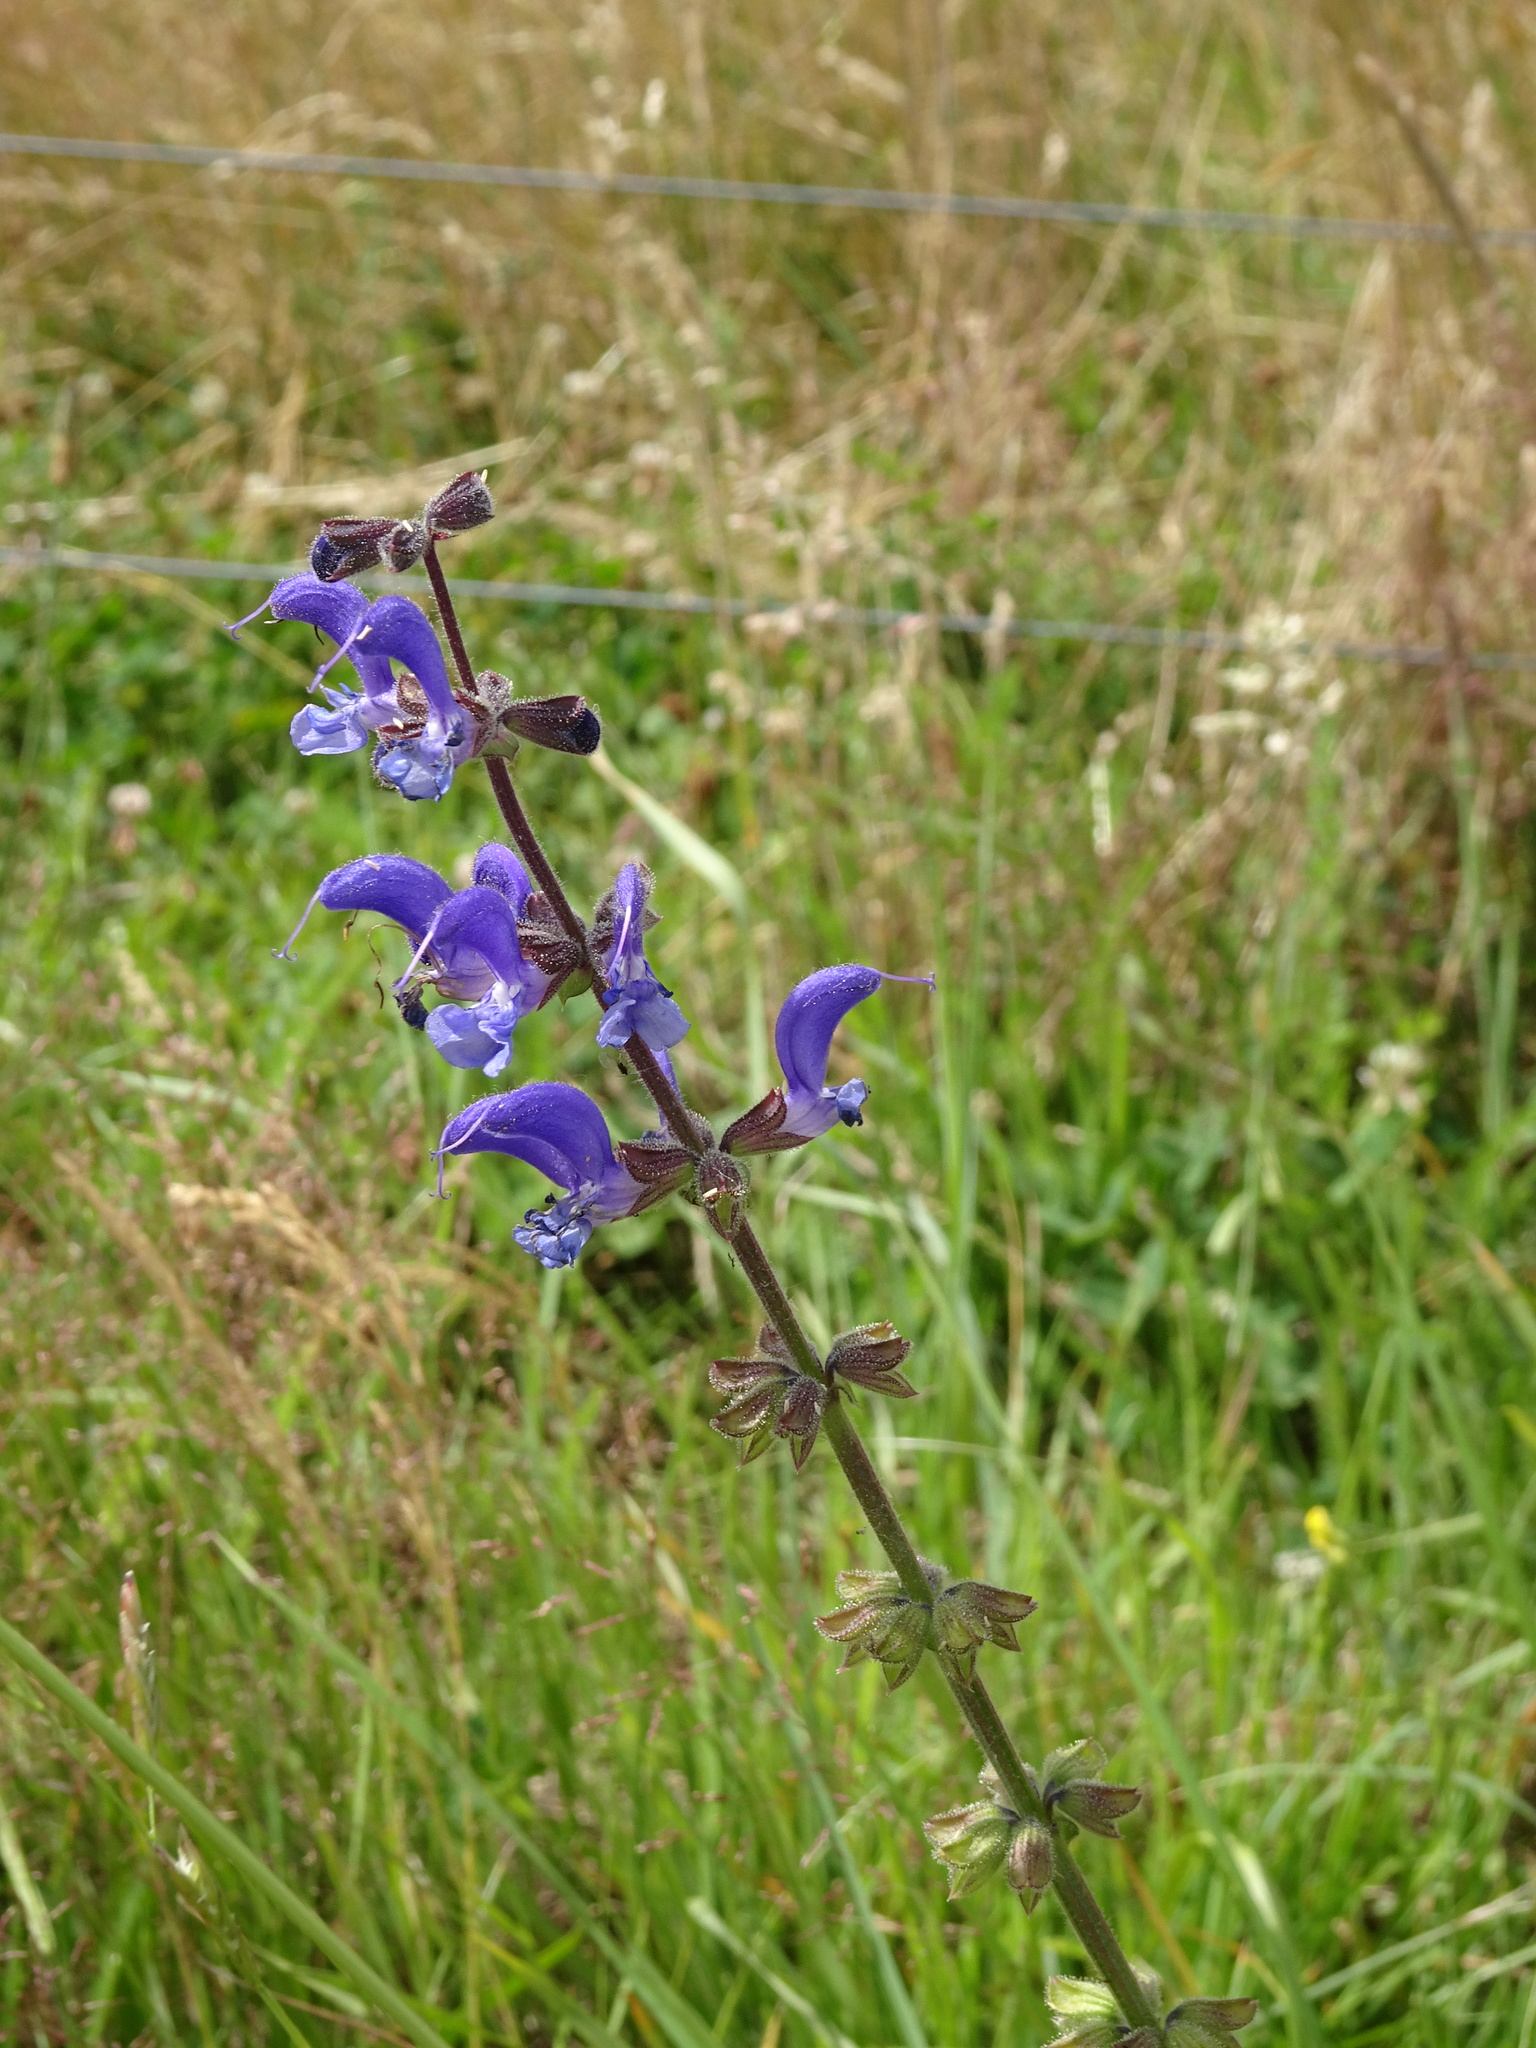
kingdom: Plantae
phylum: Tracheophyta
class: Magnoliopsida
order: Lamiales
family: Lamiaceae
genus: Salvia
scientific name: Salvia pratensis
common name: Meadow sage
